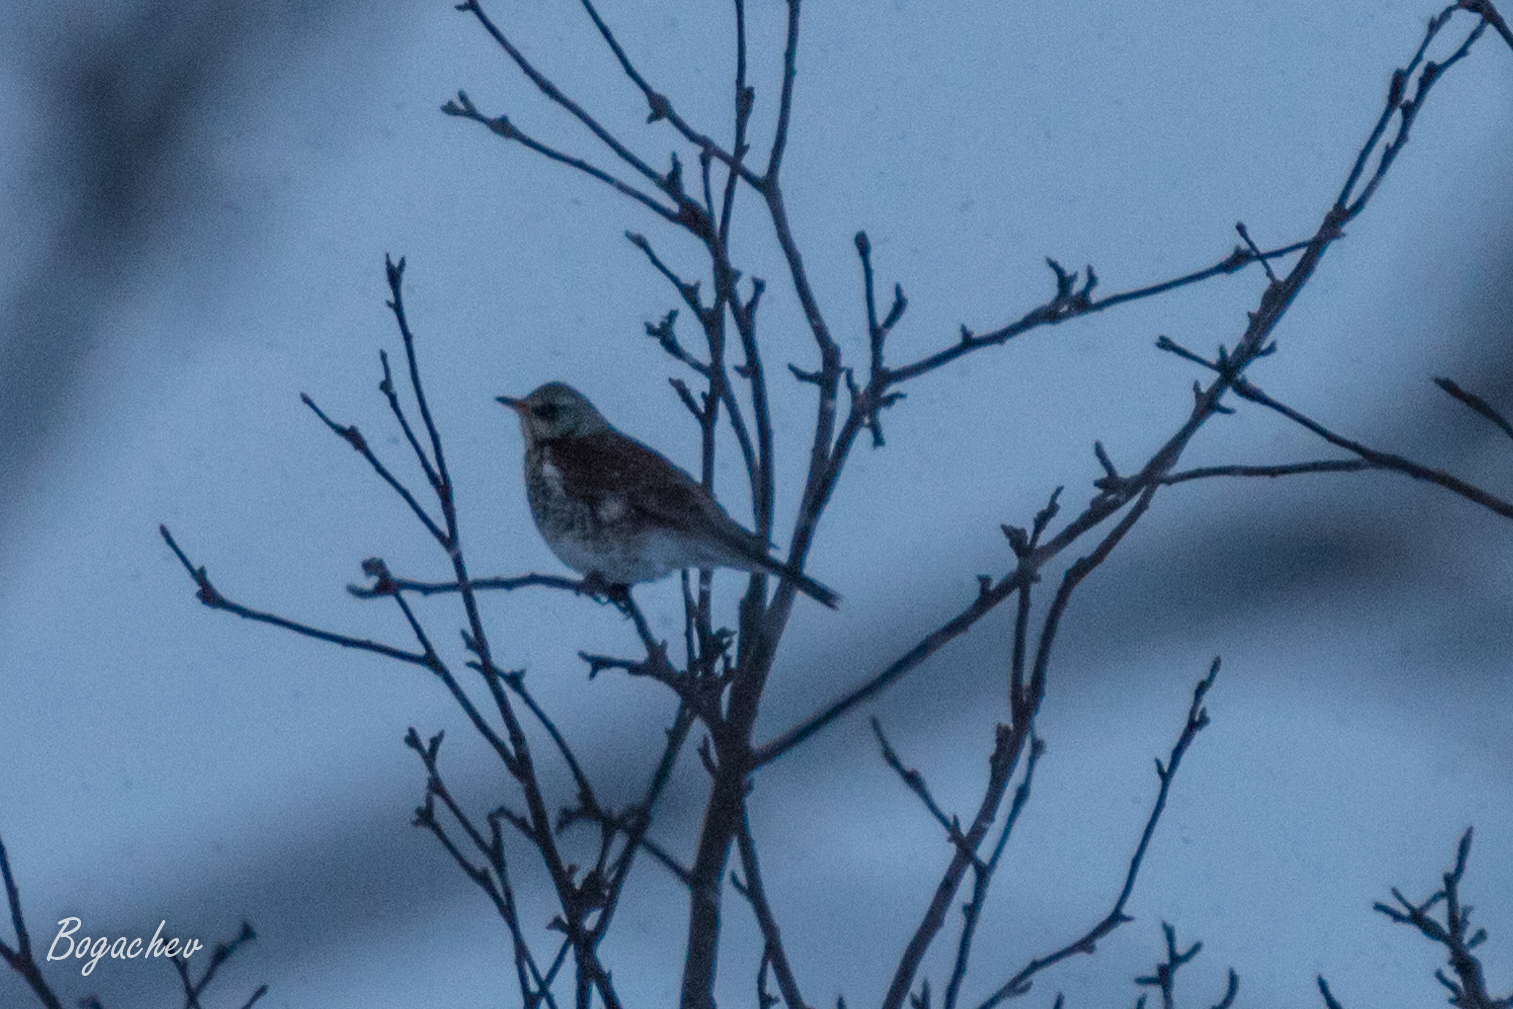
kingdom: Animalia
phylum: Chordata
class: Aves
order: Passeriformes
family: Turdidae
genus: Turdus
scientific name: Turdus pilaris
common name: Fieldfare
